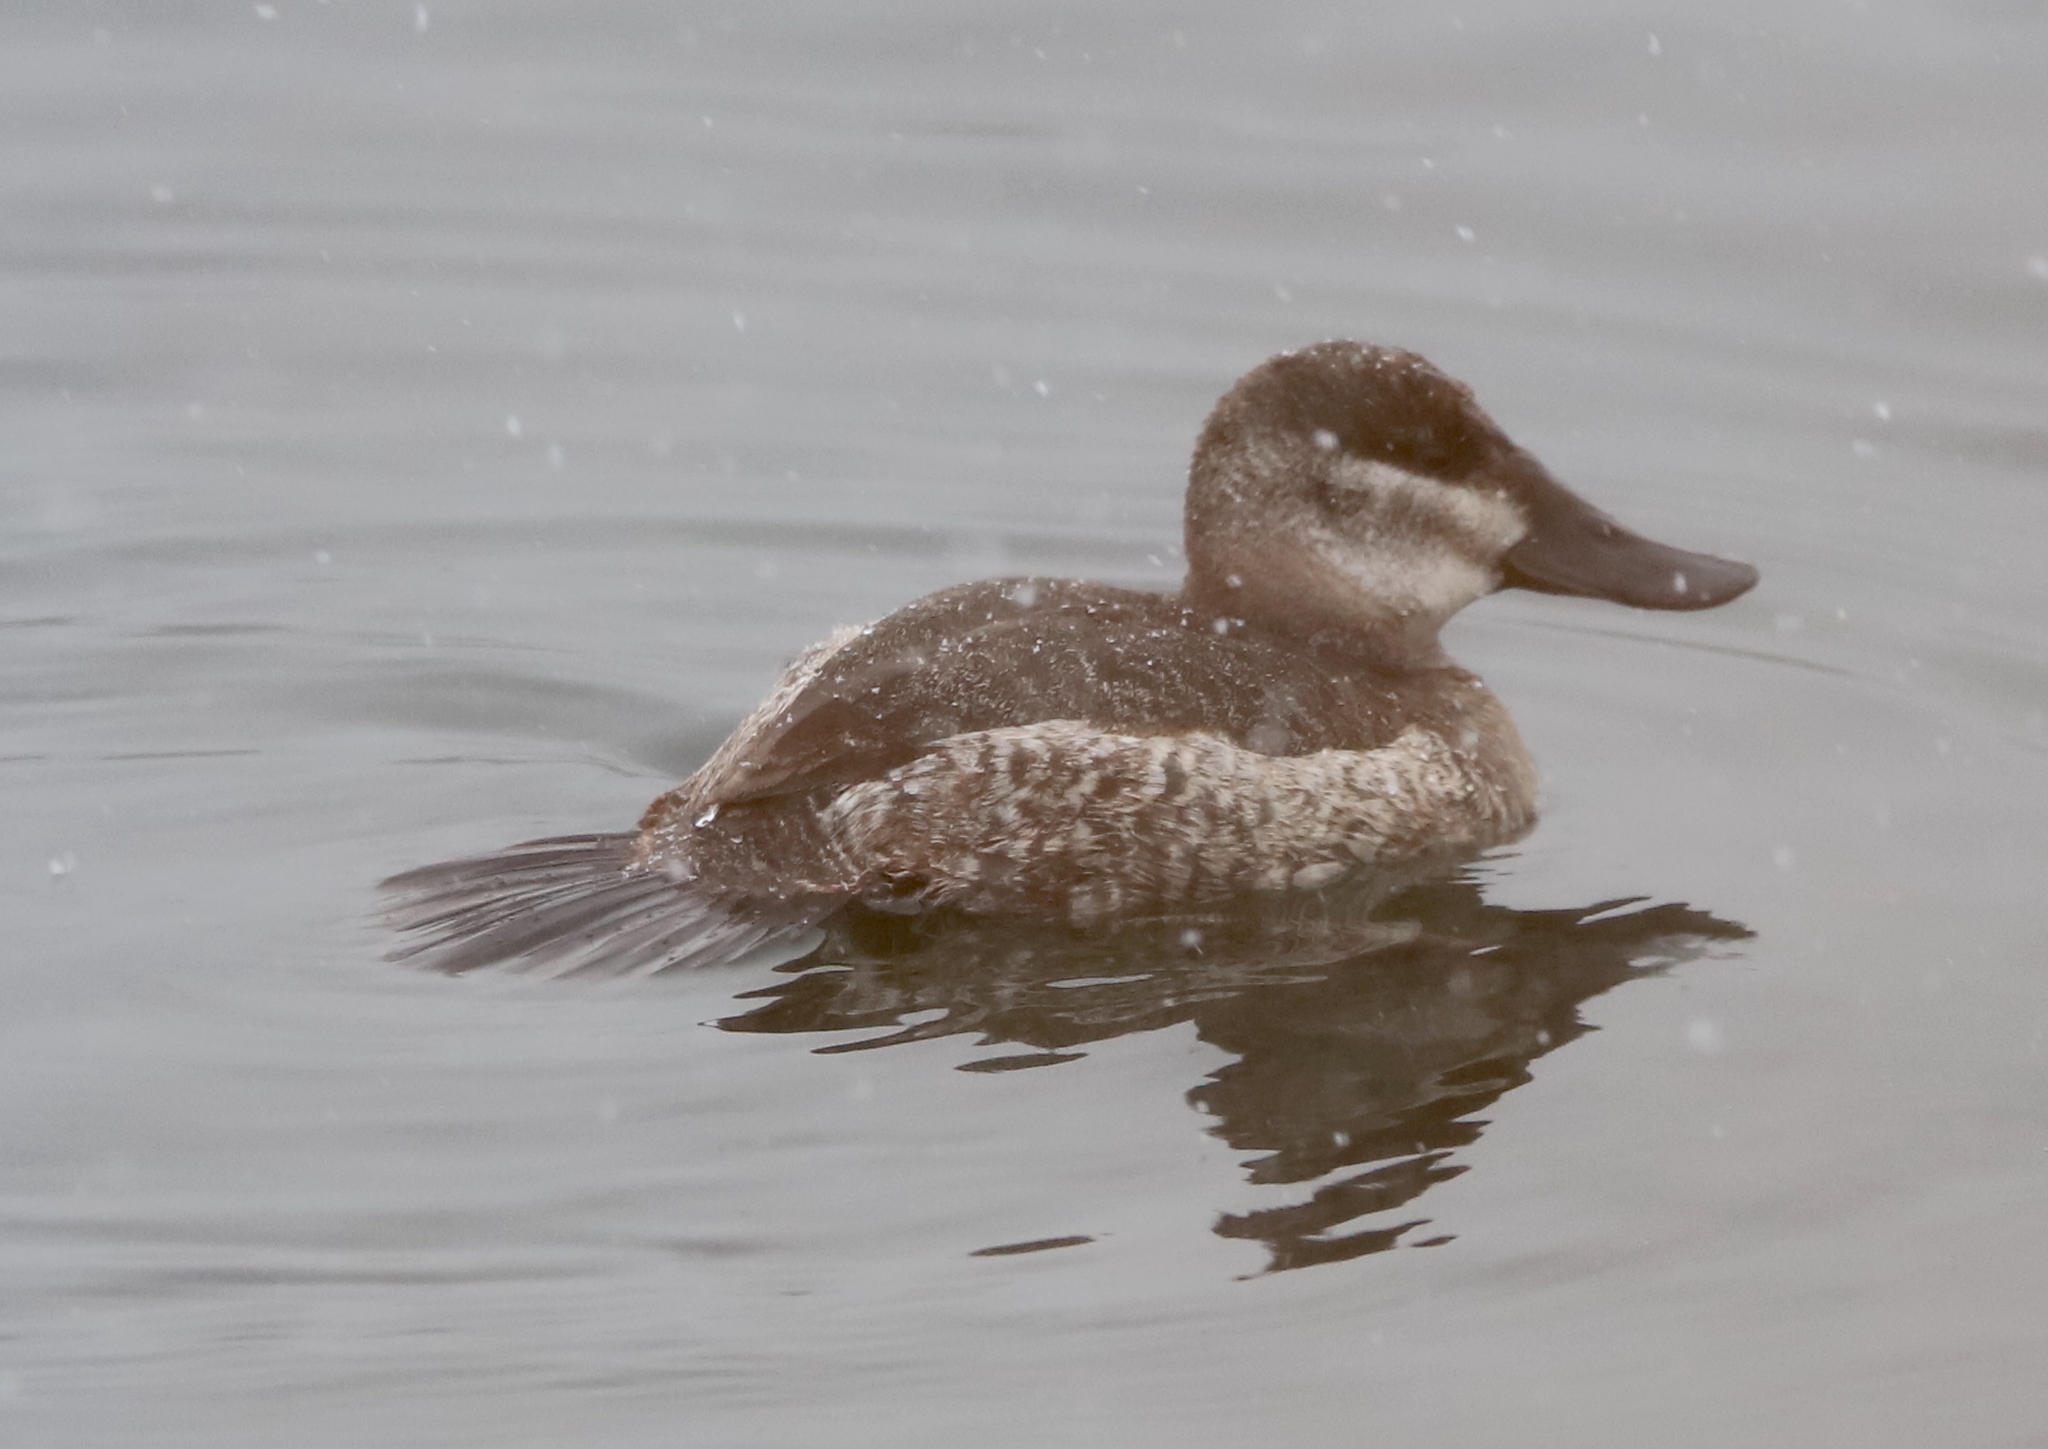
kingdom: Animalia
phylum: Chordata
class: Aves
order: Anseriformes
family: Anatidae
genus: Oxyura
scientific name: Oxyura jamaicensis
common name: Ruddy duck
